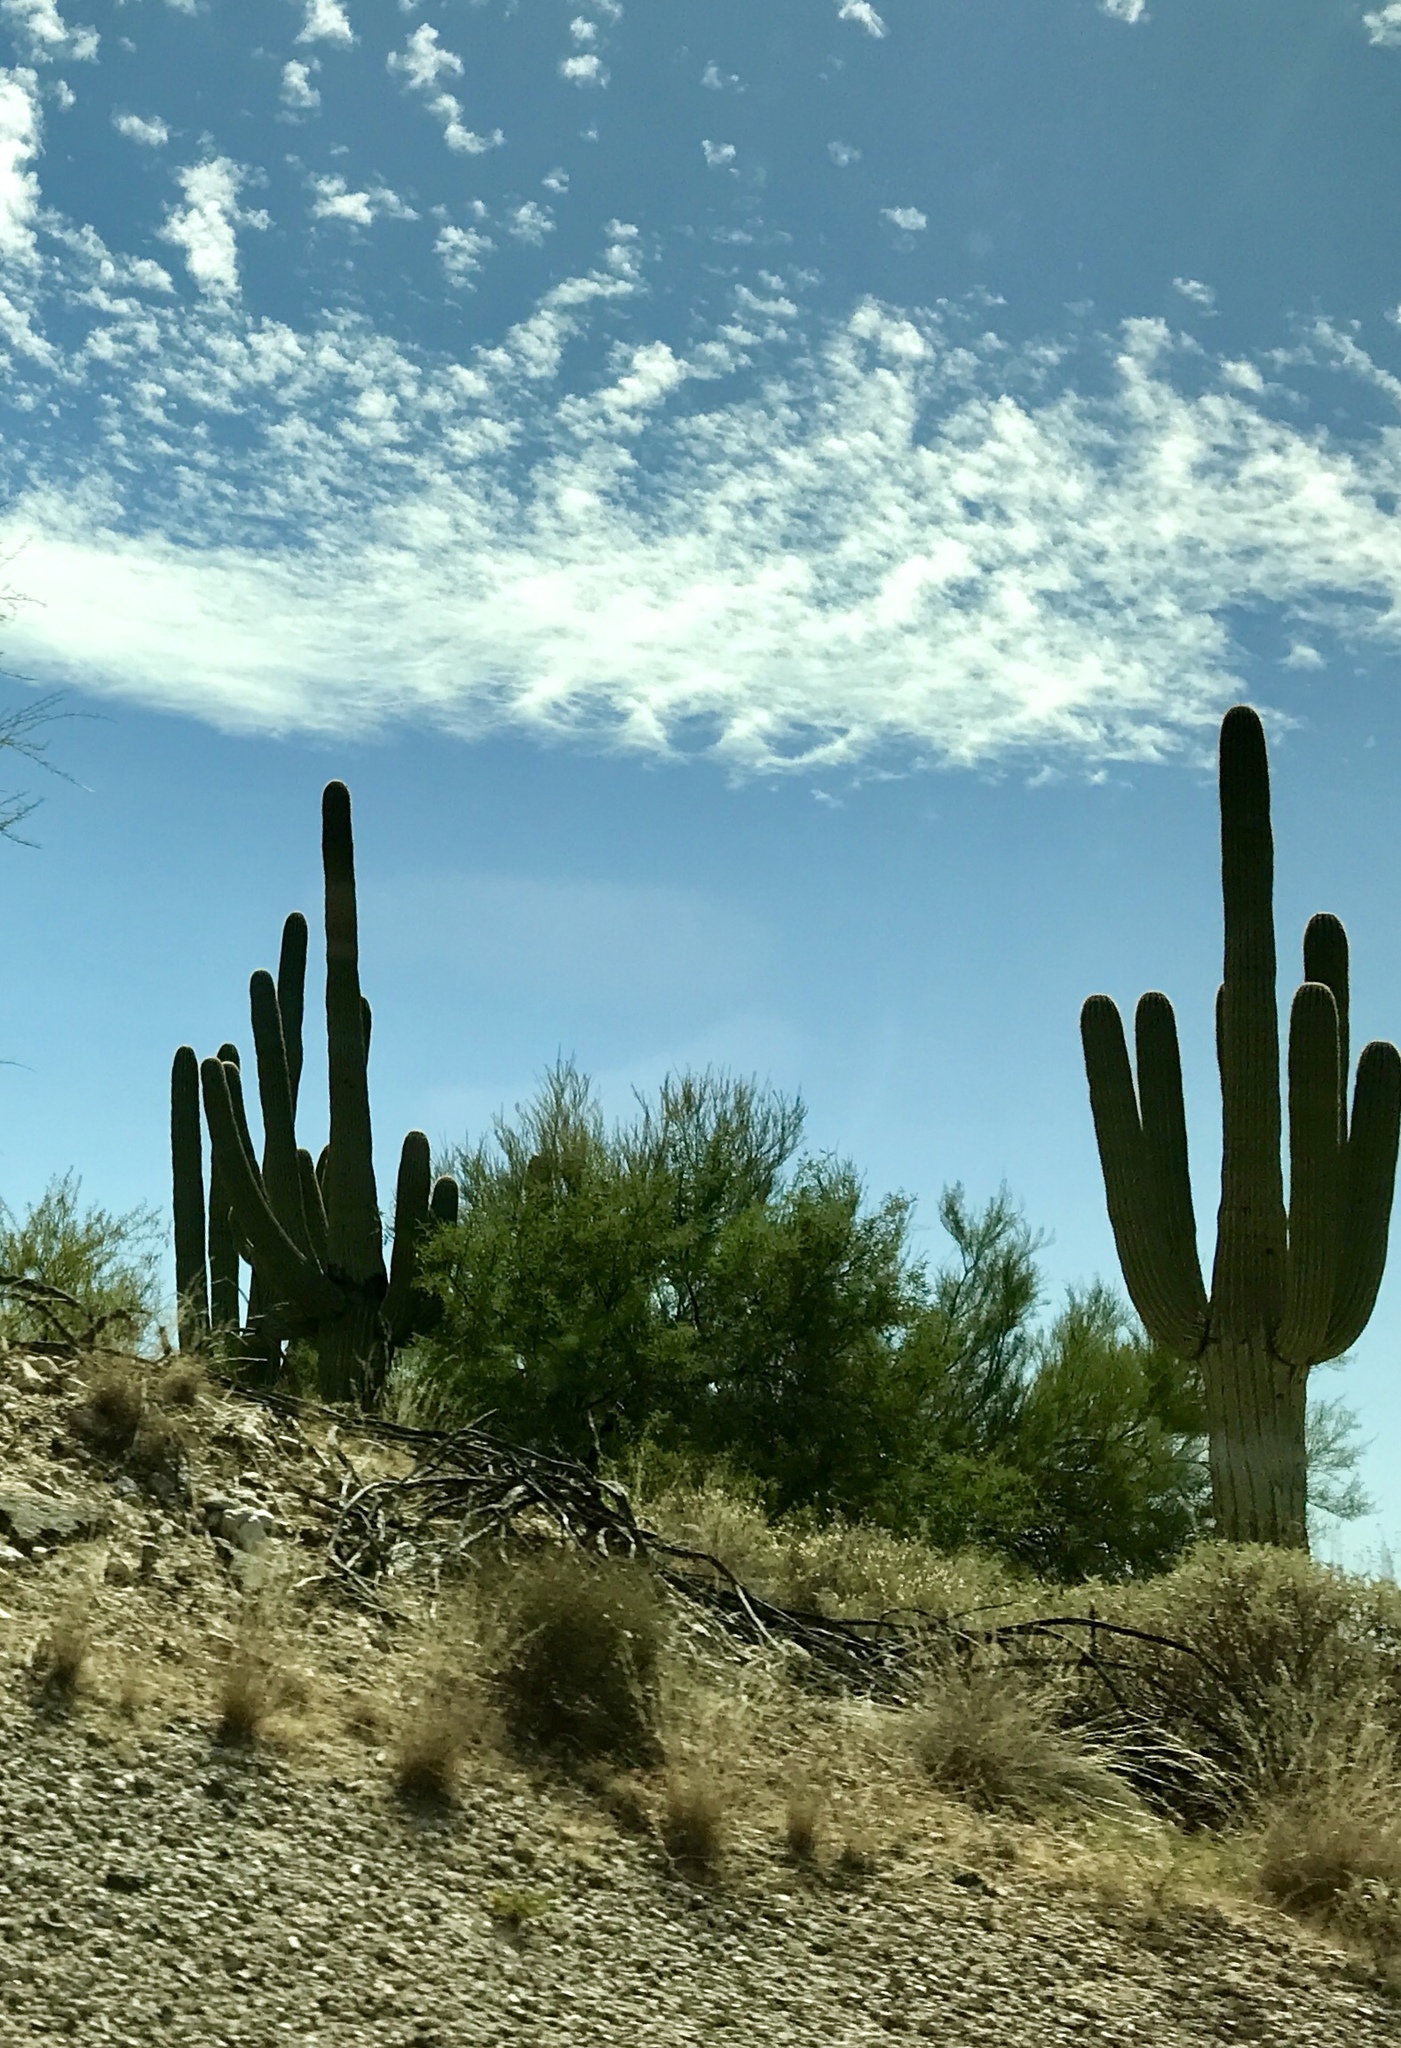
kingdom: Plantae
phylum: Tracheophyta
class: Magnoliopsida
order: Caryophyllales
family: Cactaceae
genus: Carnegiea
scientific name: Carnegiea gigantea
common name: Saguaro
